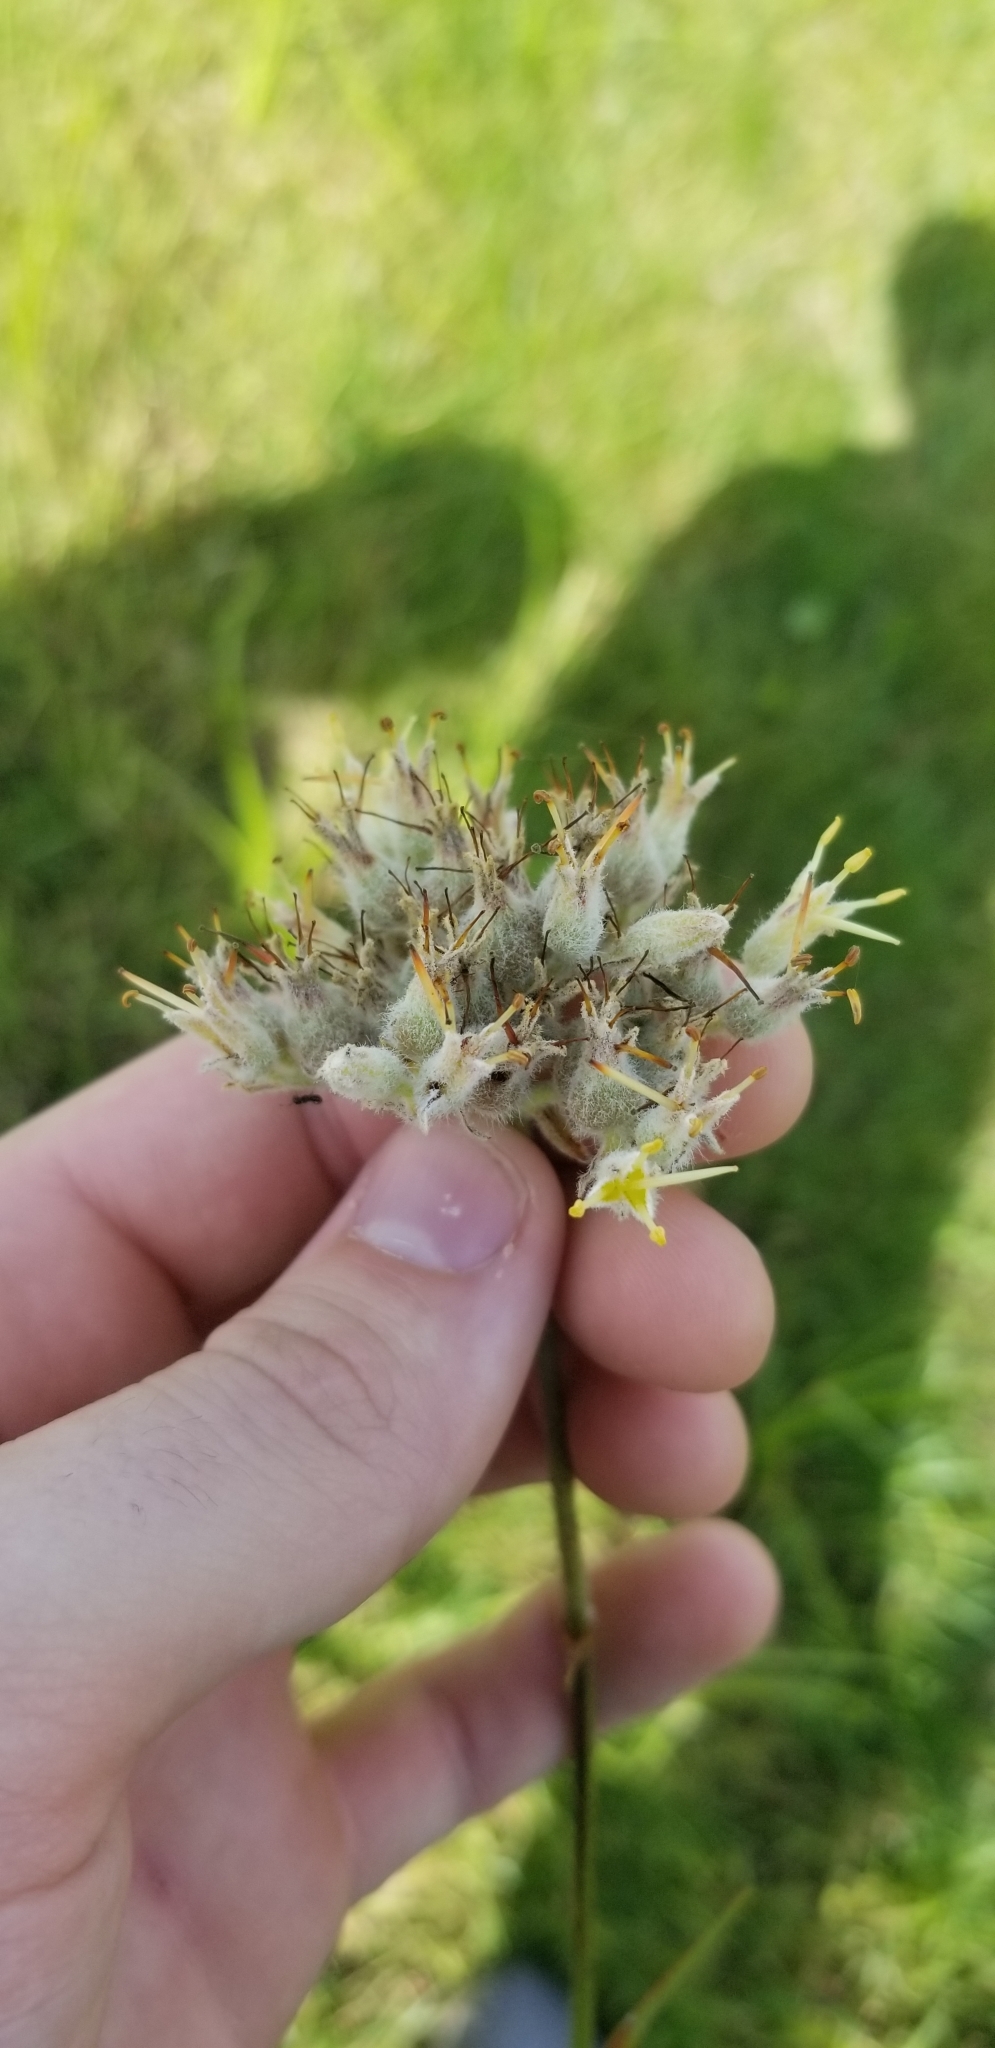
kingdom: Plantae
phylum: Tracheophyta
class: Liliopsida
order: Commelinales
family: Haemodoraceae
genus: Lachnanthes
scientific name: Lachnanthes caroliana
